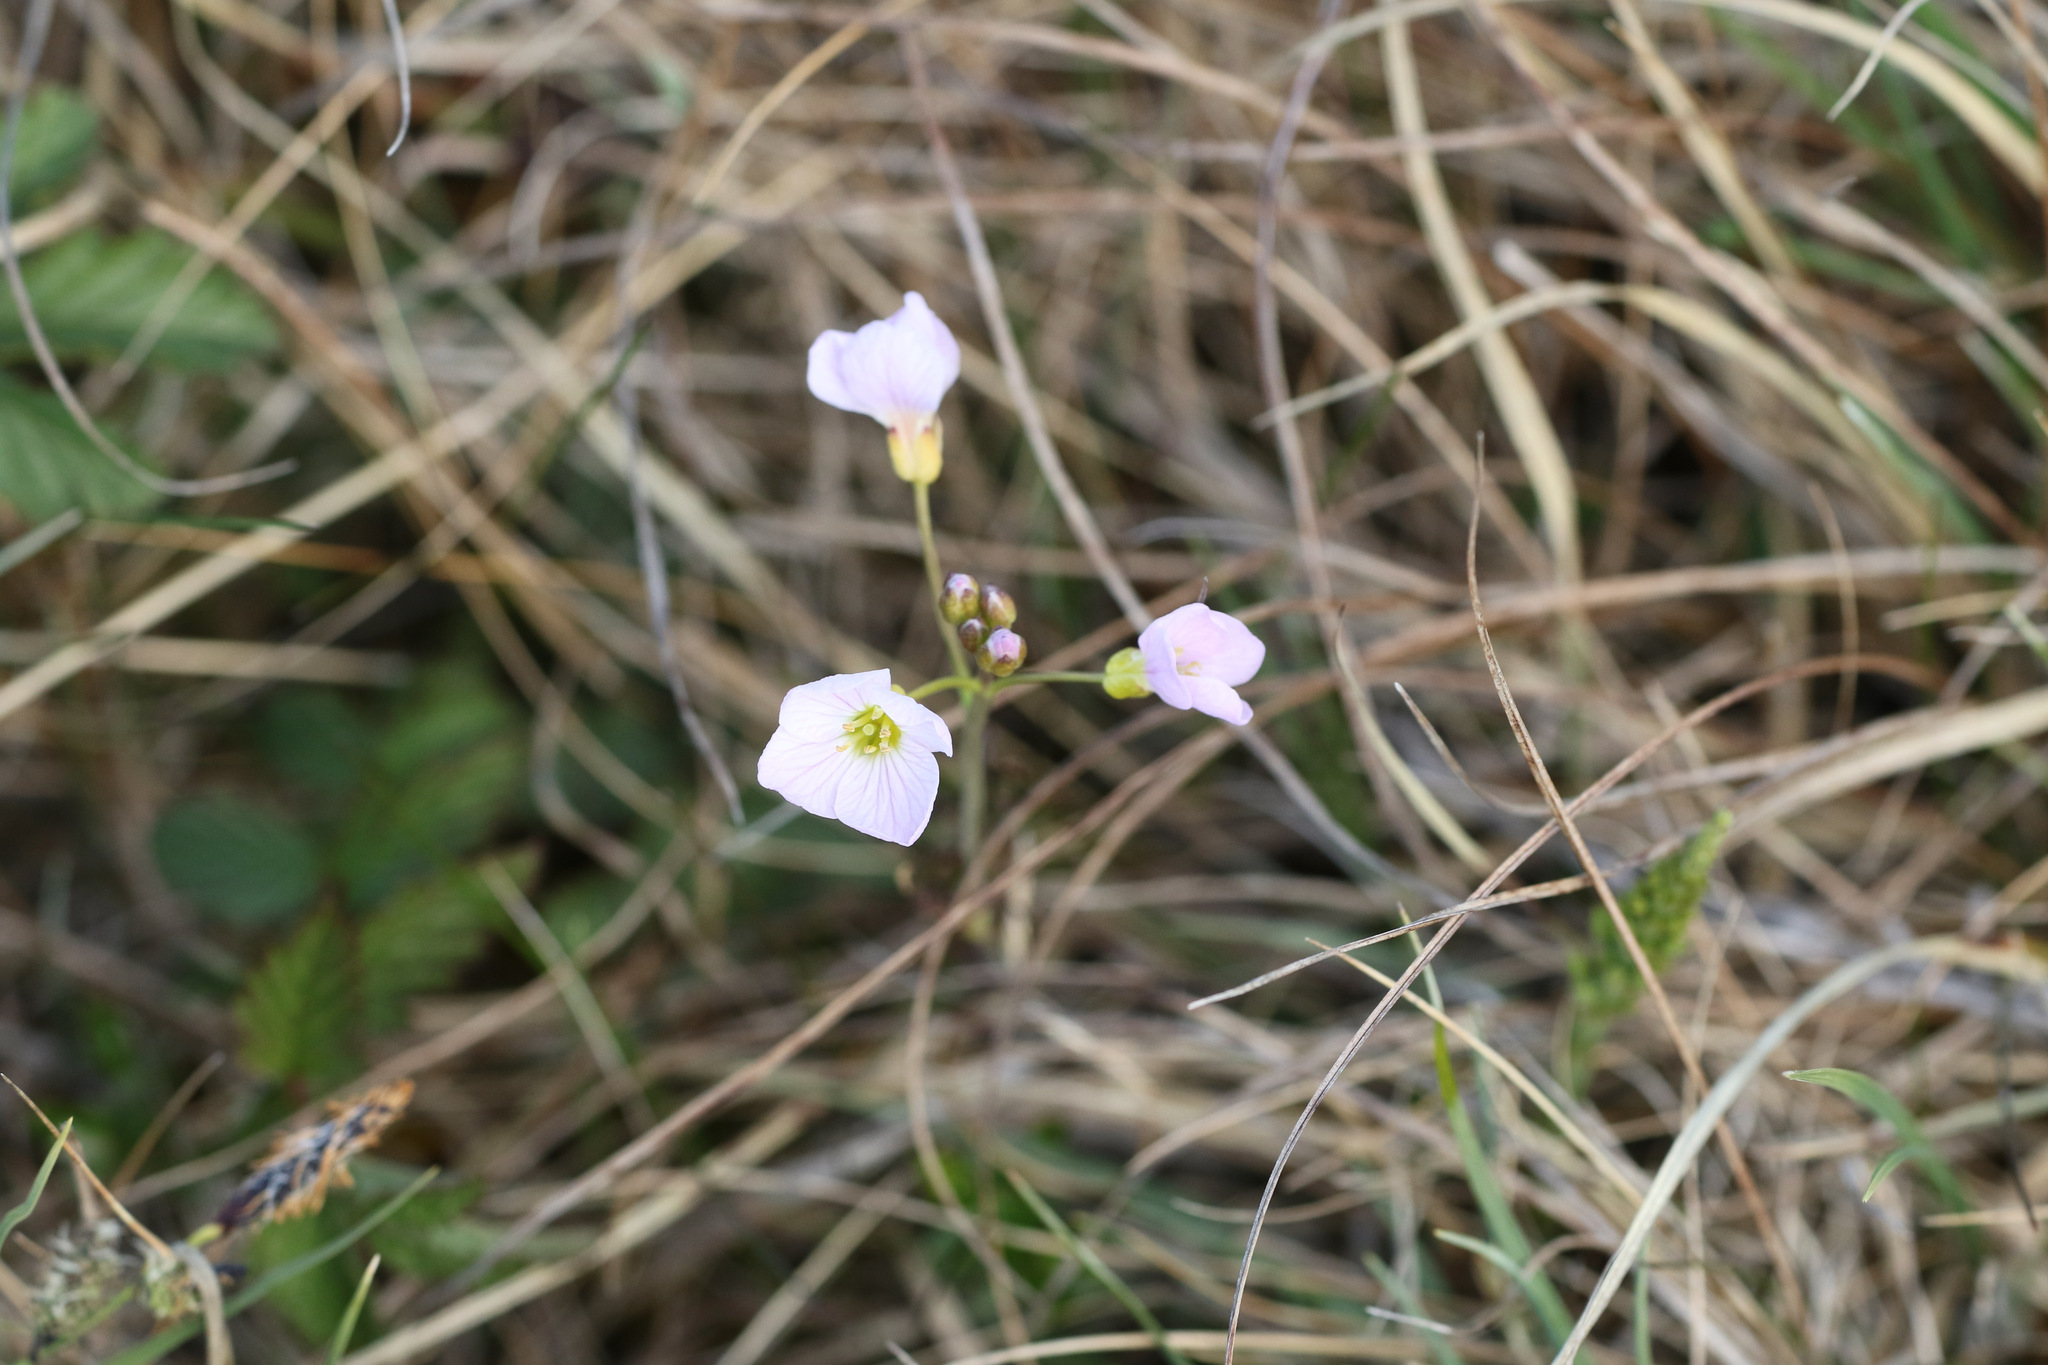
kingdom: Plantae
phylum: Tracheophyta
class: Magnoliopsida
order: Brassicales
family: Brassicaceae
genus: Cardamine
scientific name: Cardamine pratensis
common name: Cuckoo flower
